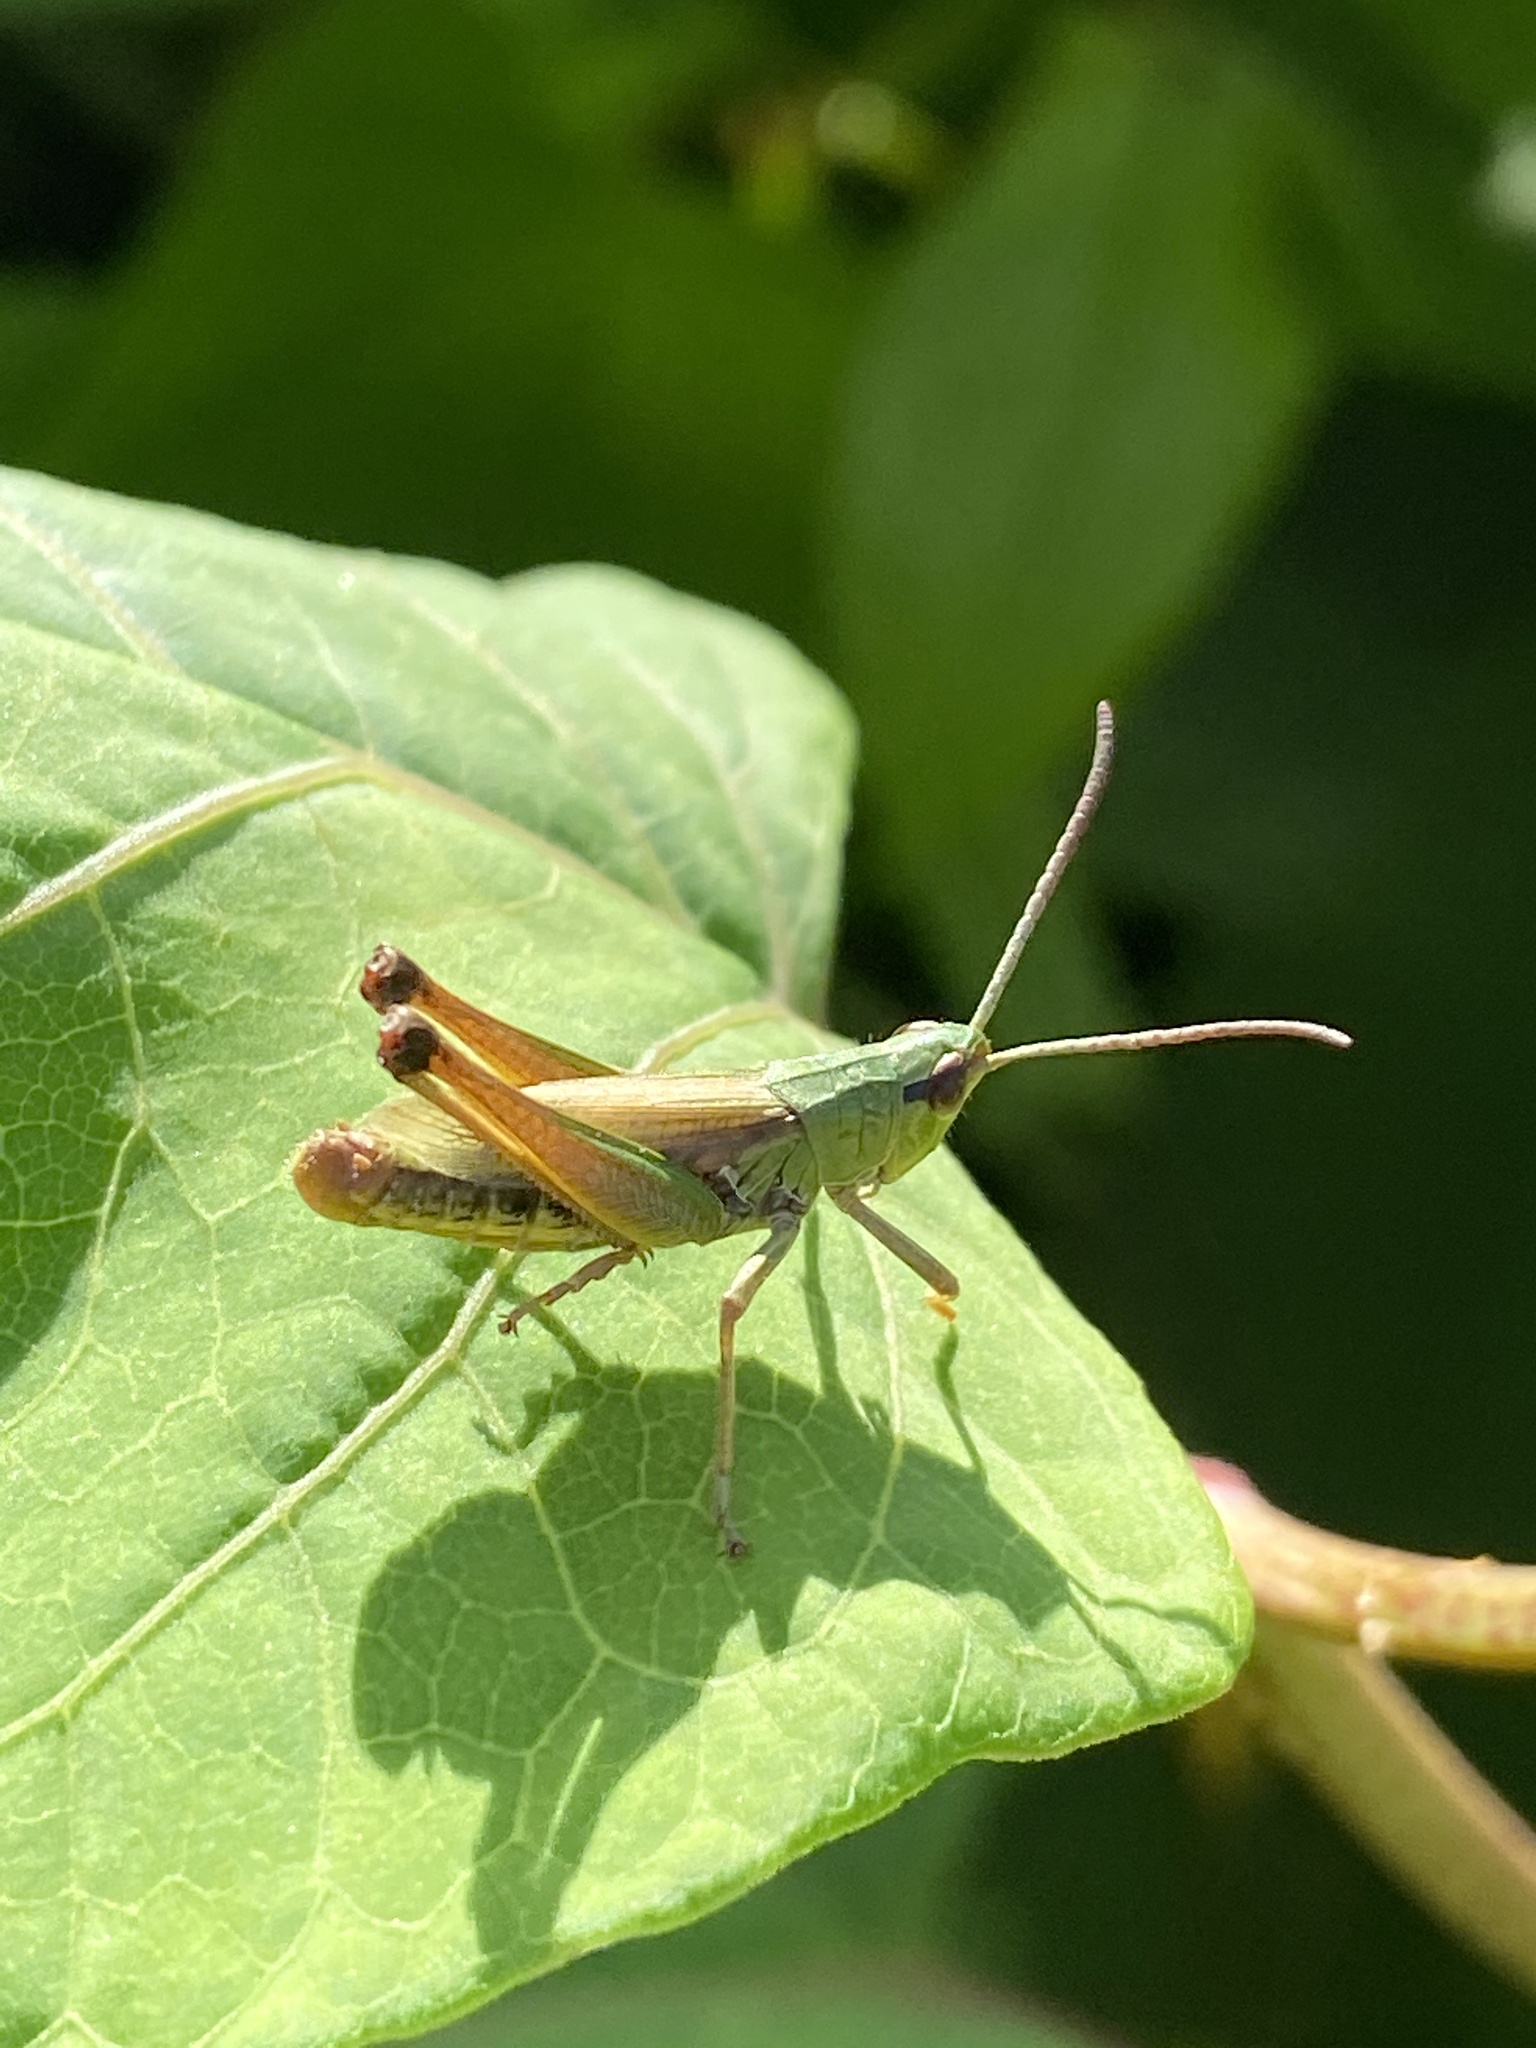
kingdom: Animalia
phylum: Arthropoda
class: Insecta
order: Orthoptera
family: Acrididae
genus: Pseudochorthippus
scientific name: Pseudochorthippus parallelus
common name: Meadow grasshopper
